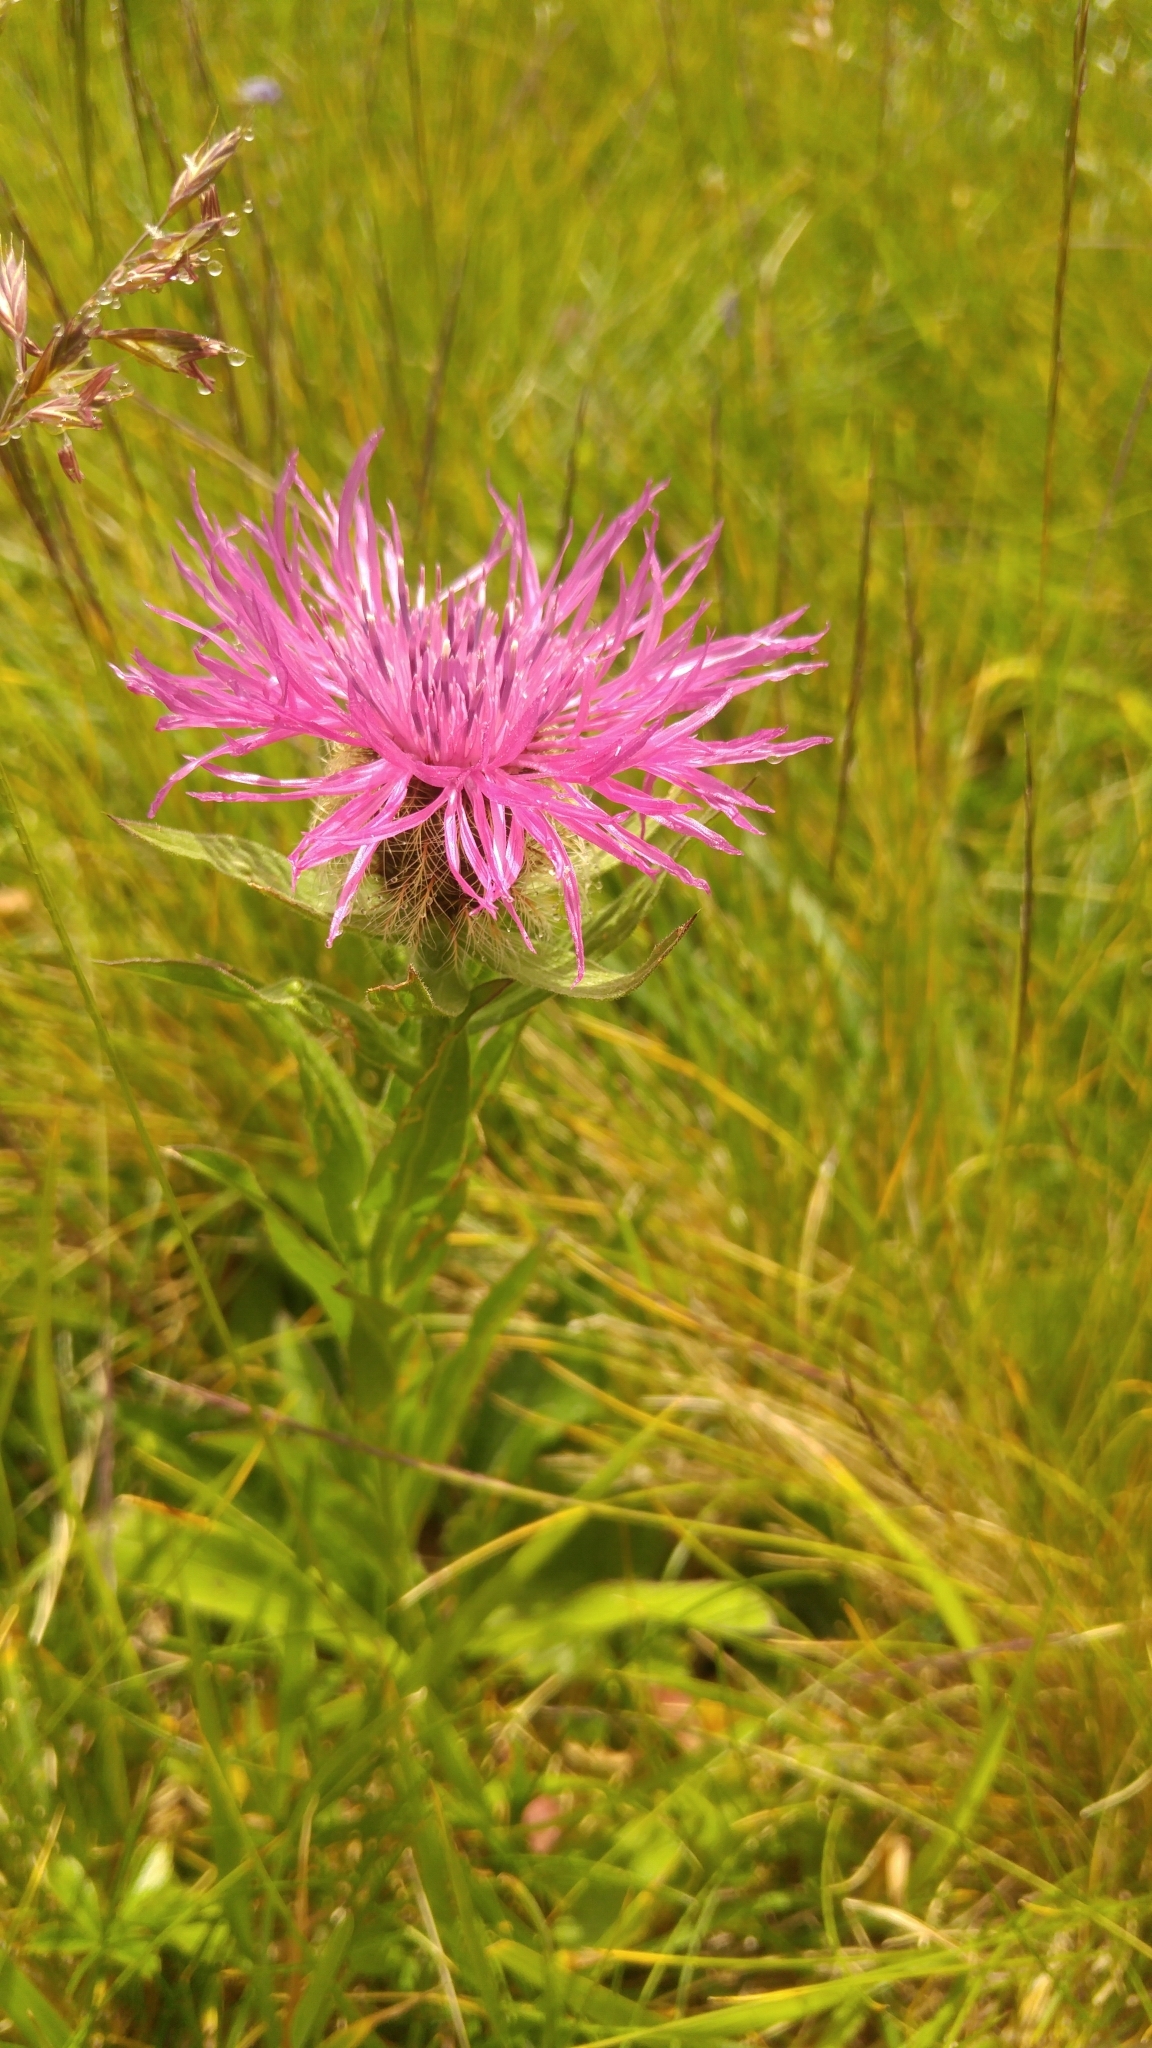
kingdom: Plantae
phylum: Tracheophyta
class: Magnoliopsida
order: Asterales
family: Asteraceae
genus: Centaurea
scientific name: Centaurea nervosa
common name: Singleflower knapweed
